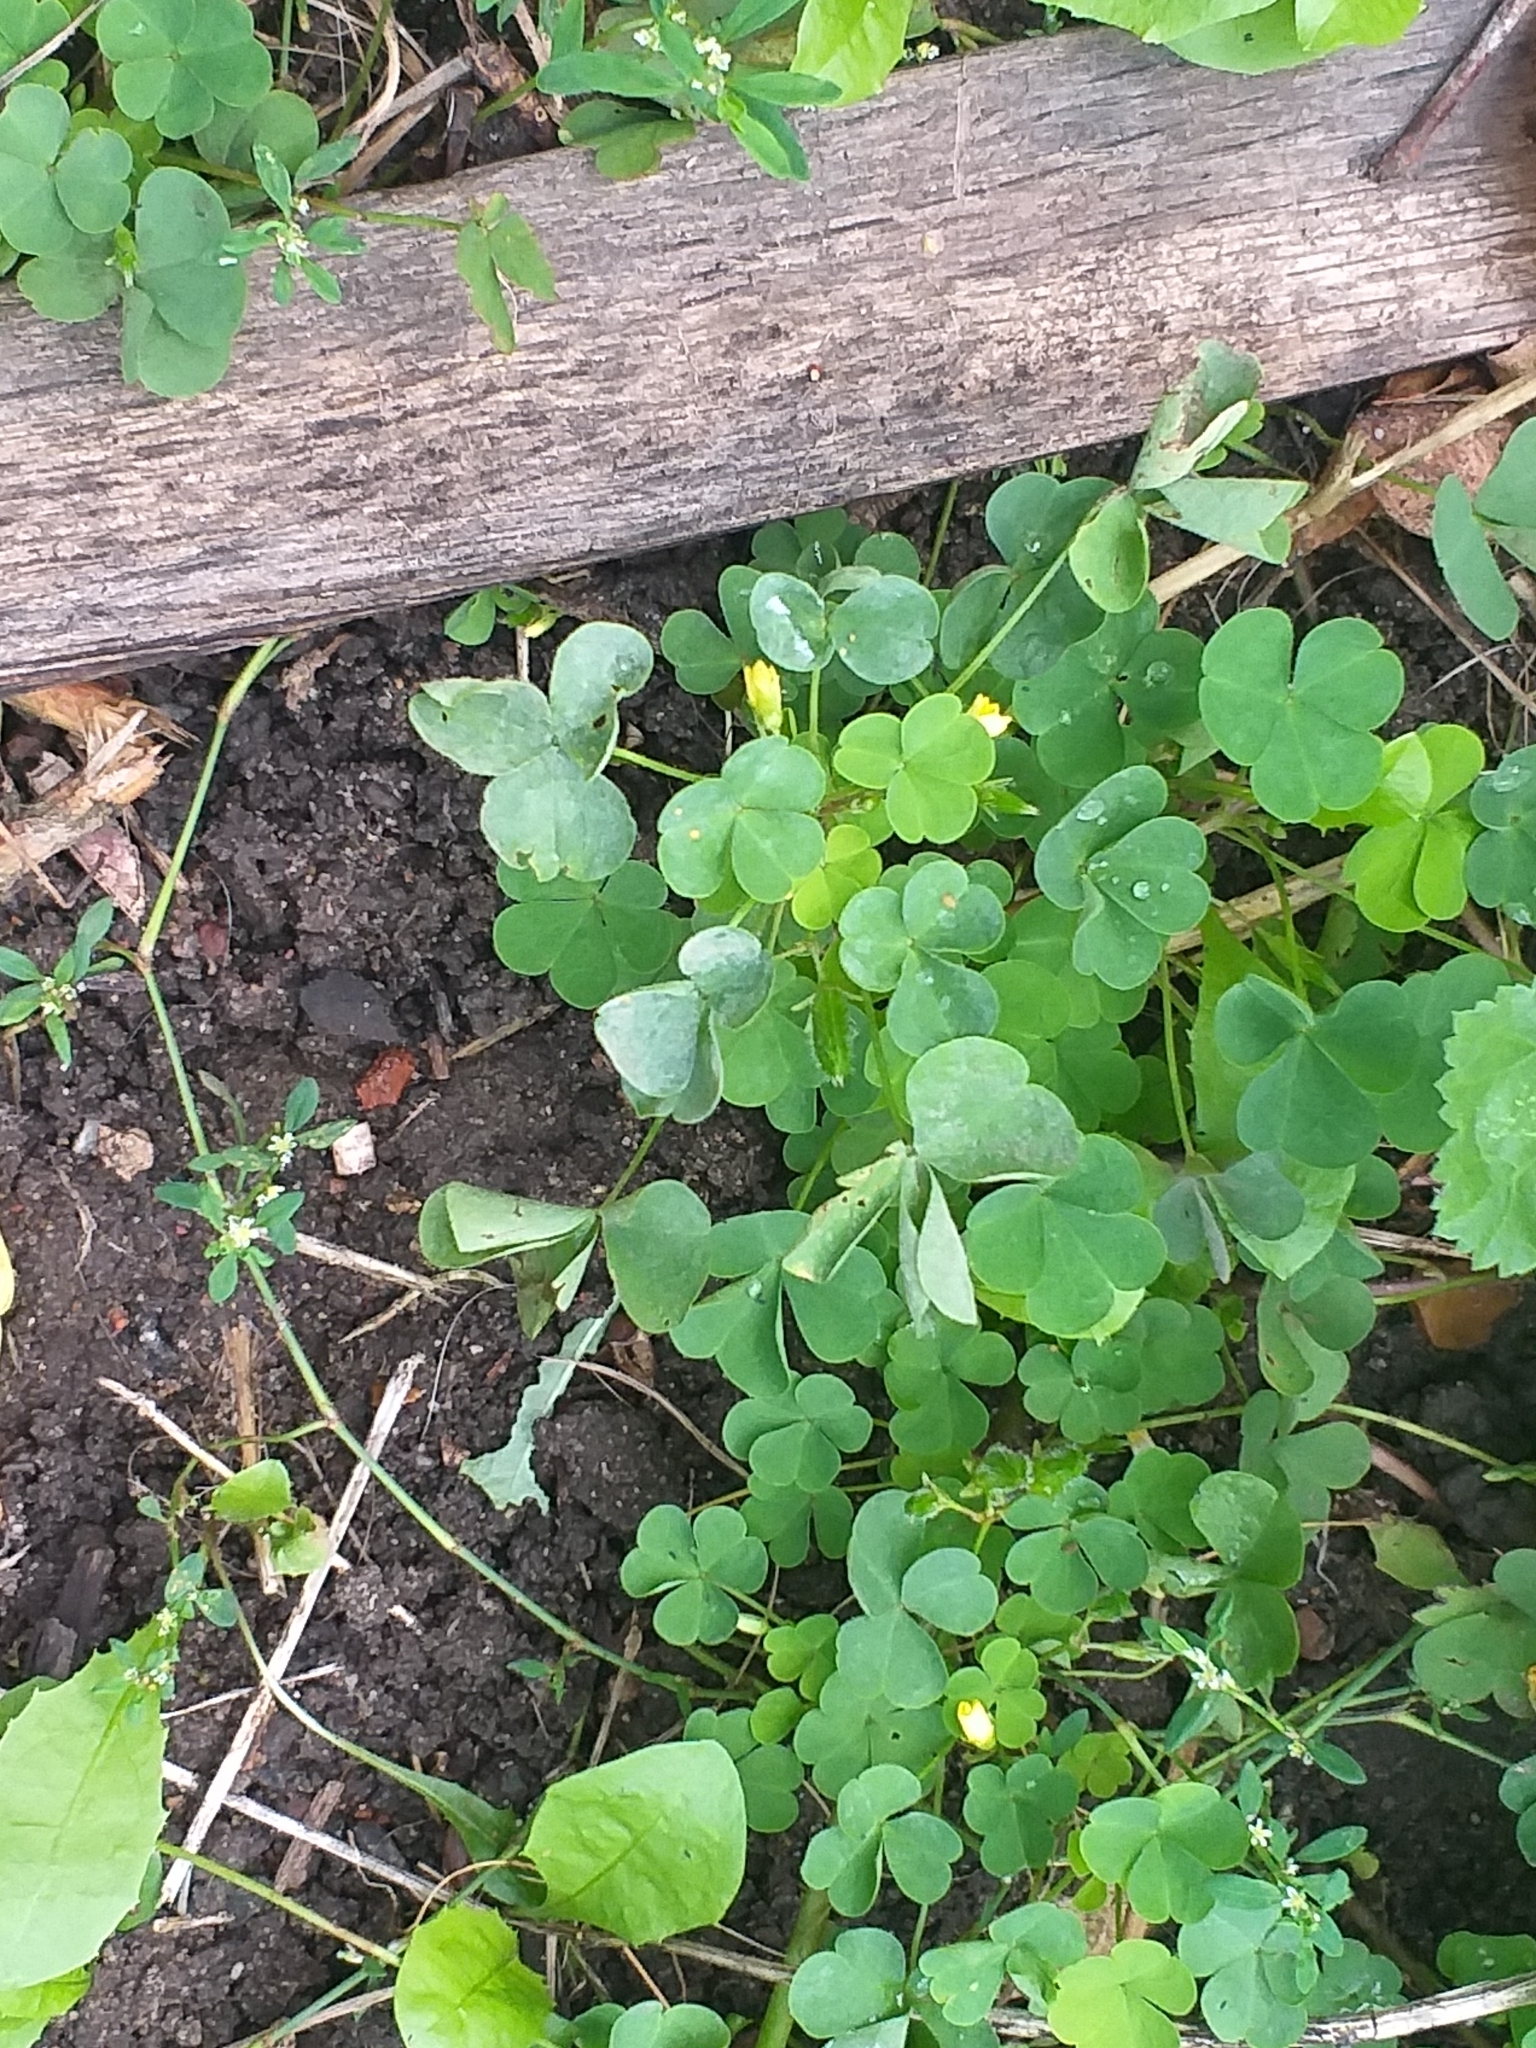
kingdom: Plantae
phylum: Tracheophyta
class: Magnoliopsida
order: Oxalidales
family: Oxalidaceae
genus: Oxalis
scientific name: Oxalis stricta
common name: Upright yellow-sorrel
